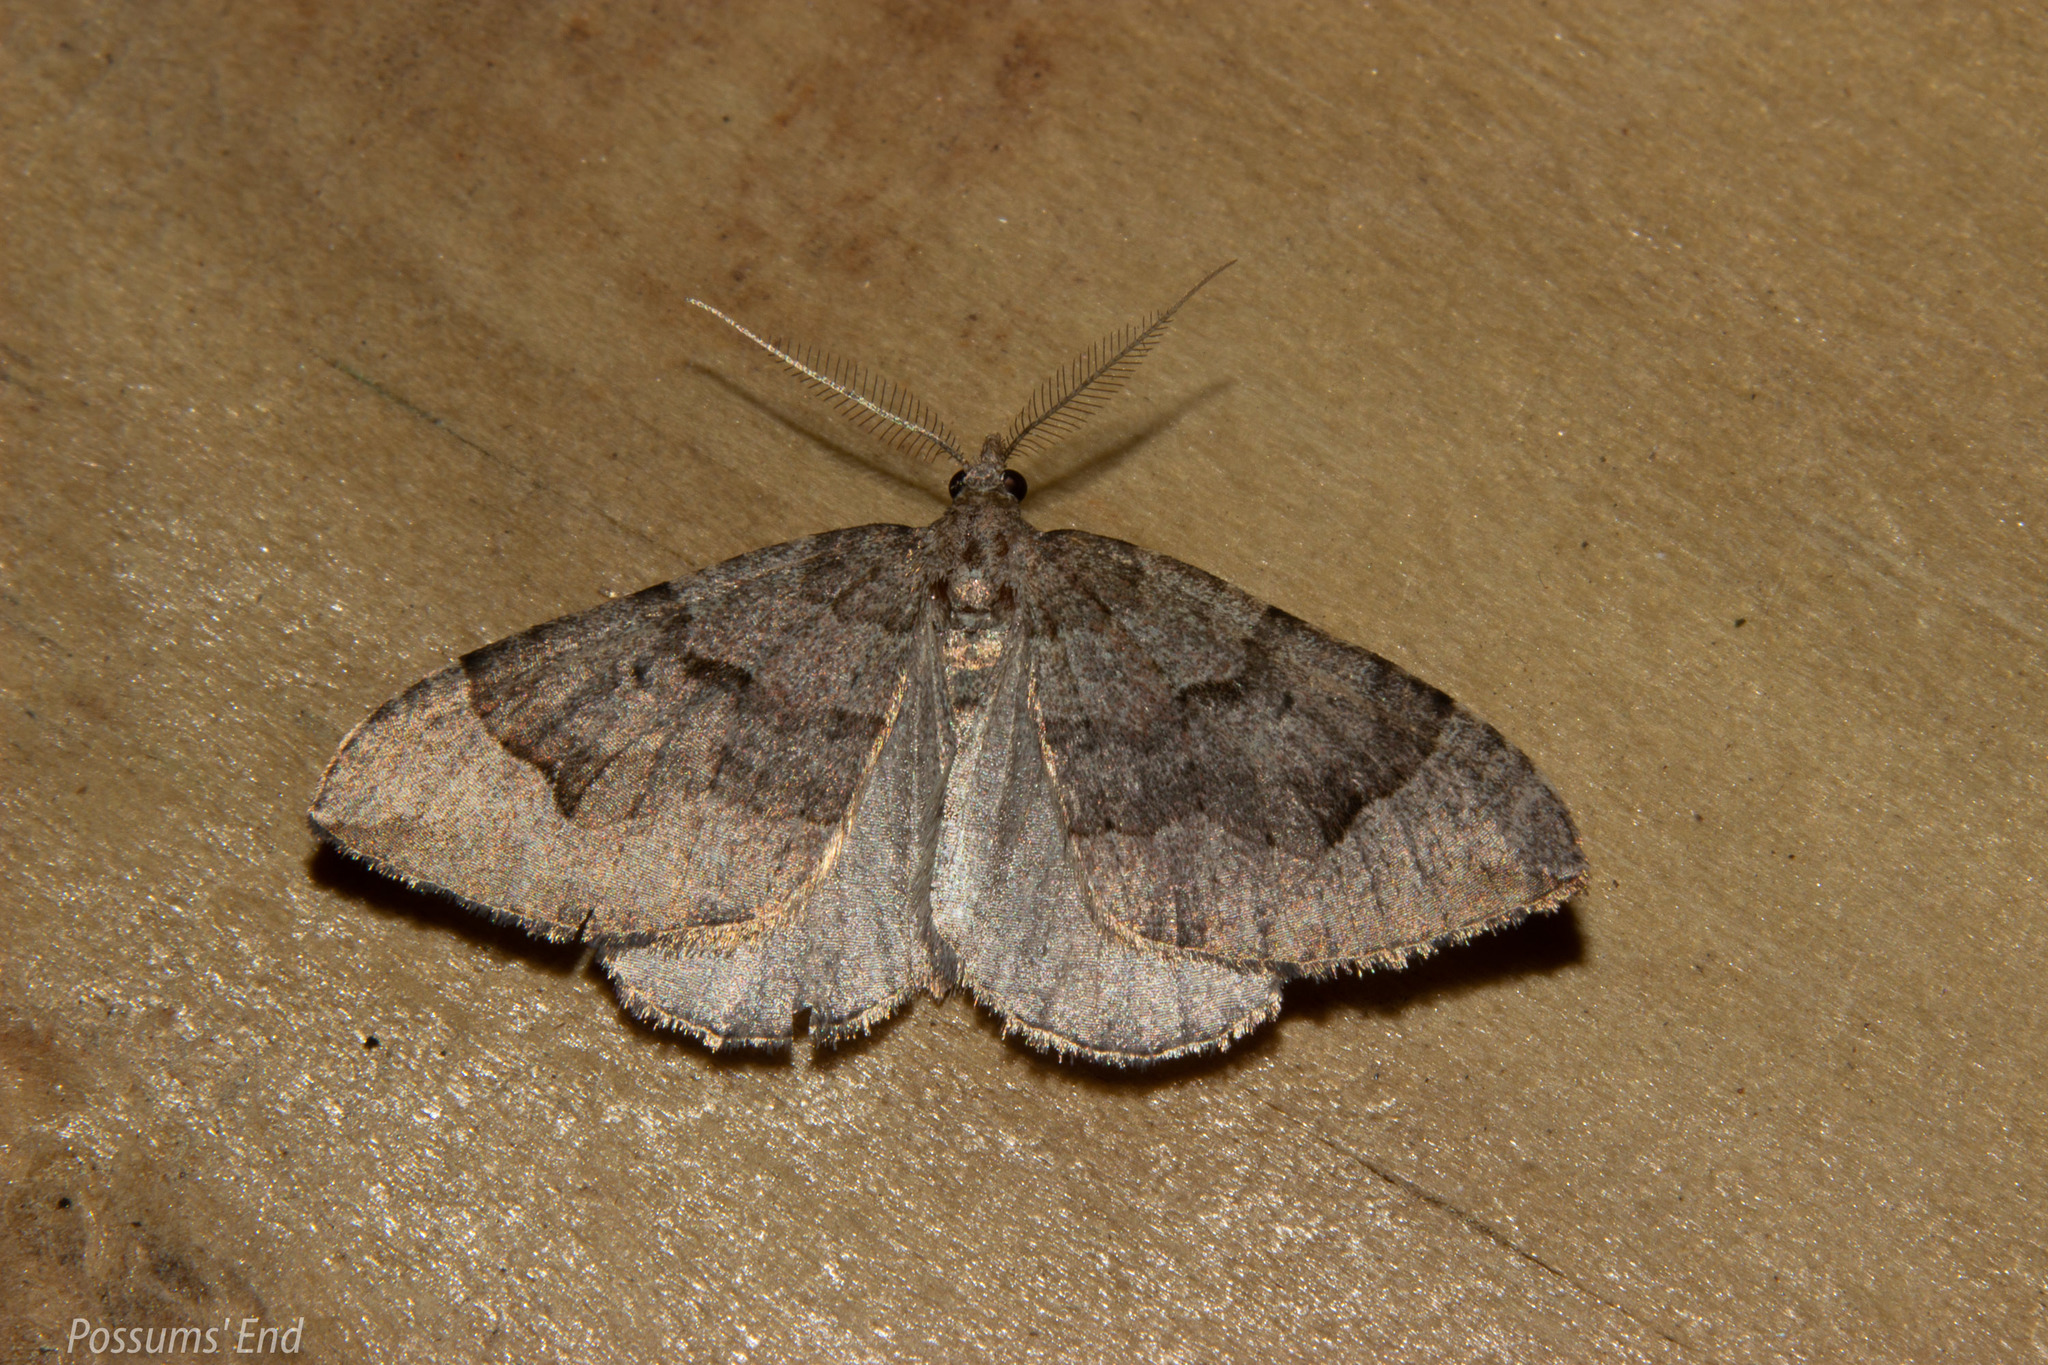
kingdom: Animalia
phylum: Arthropoda
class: Insecta
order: Lepidoptera
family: Geometridae
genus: Epyaxa
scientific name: Epyaxa rosearia
